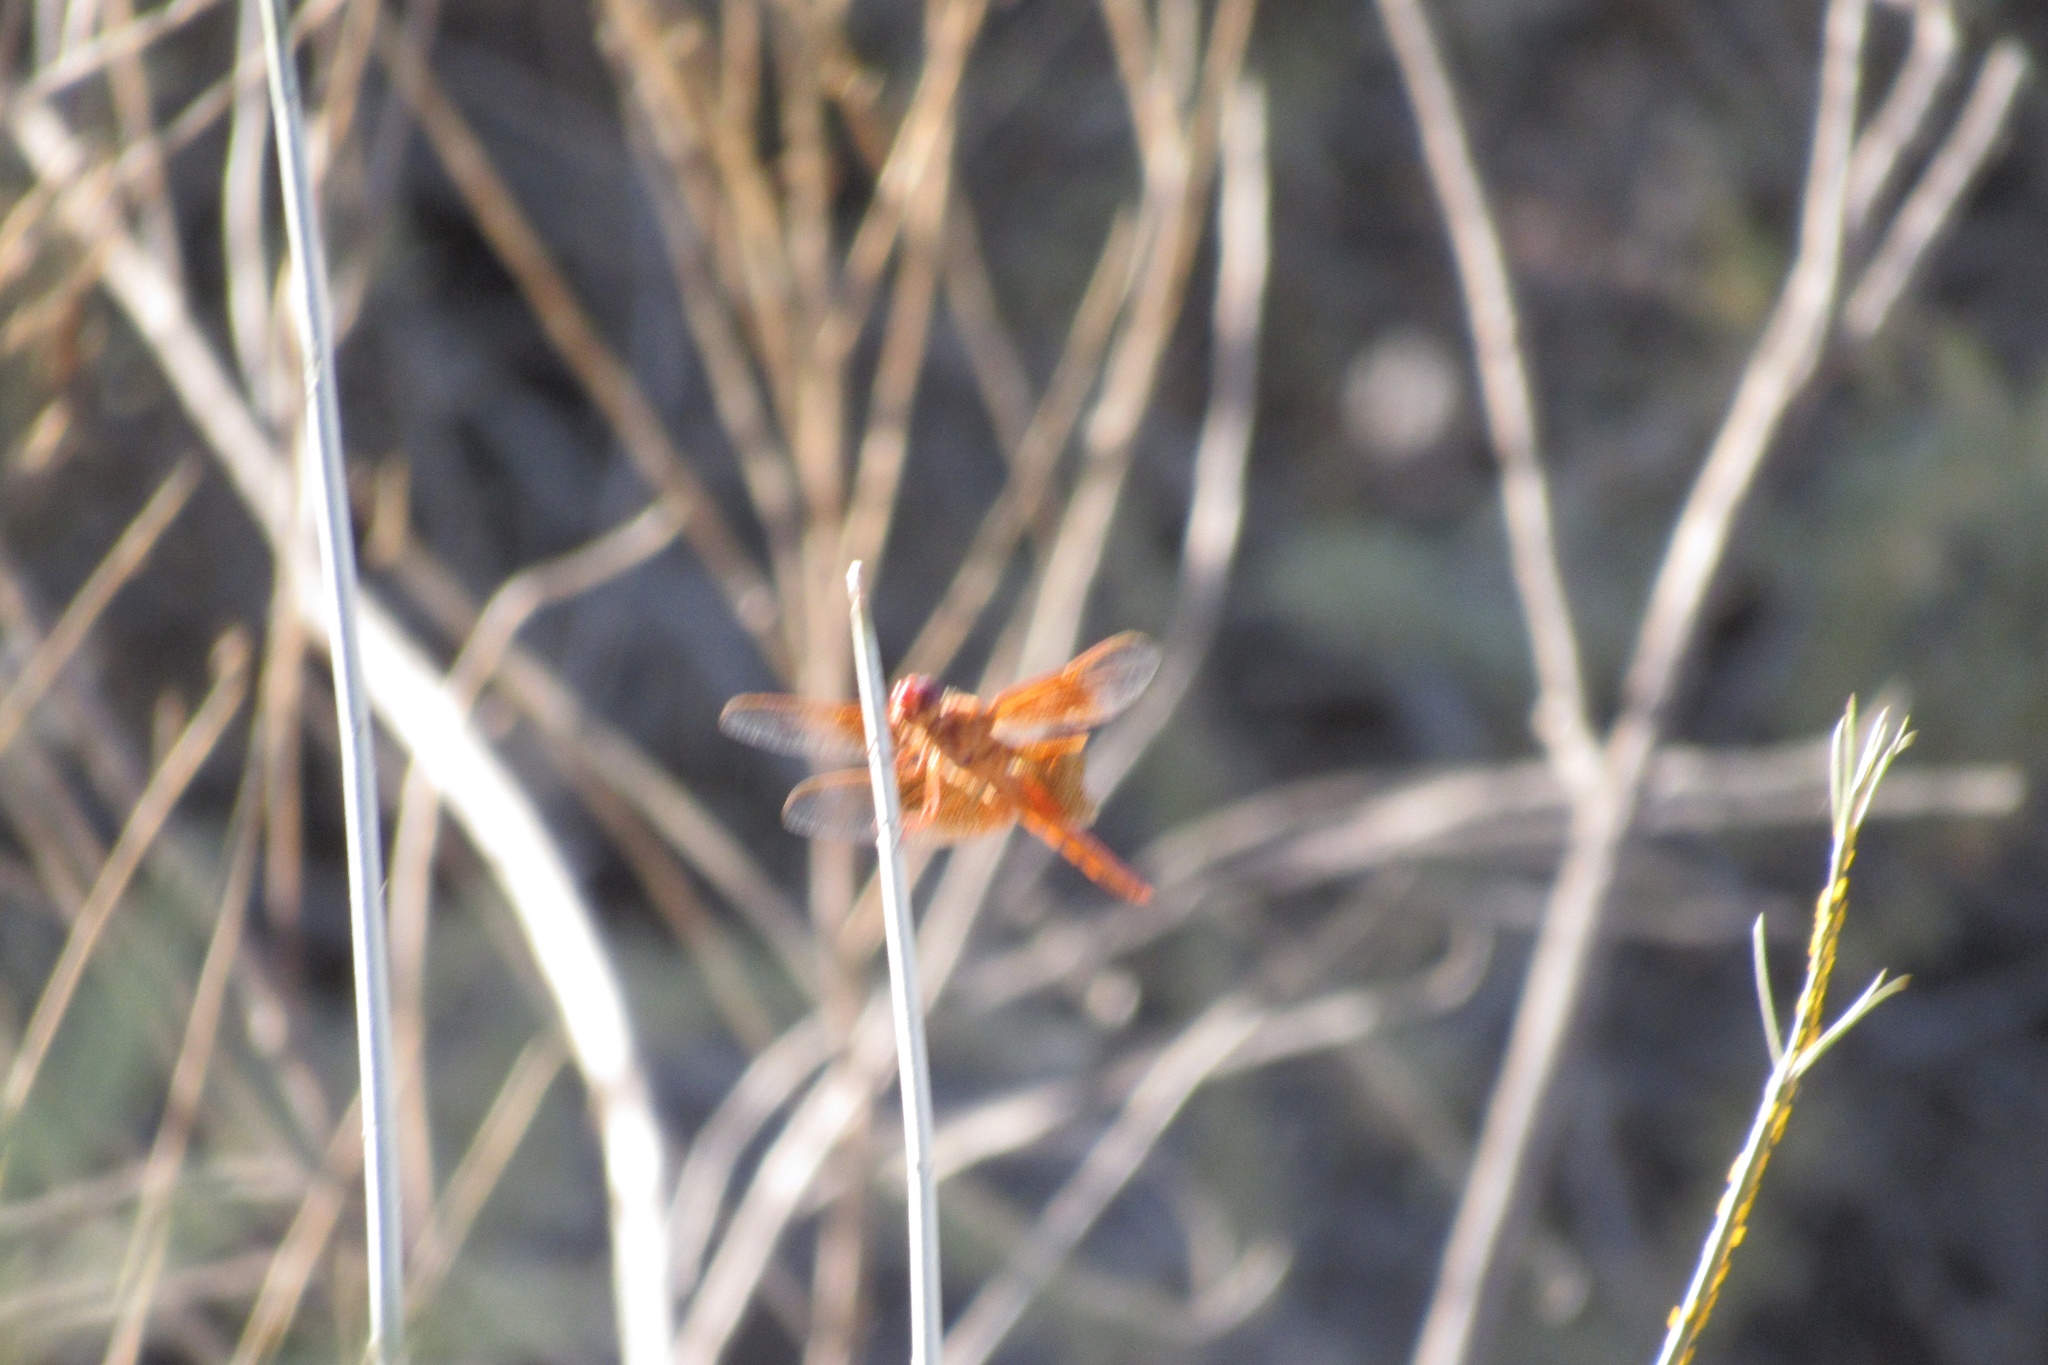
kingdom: Animalia
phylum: Arthropoda
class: Insecta
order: Odonata
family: Libellulidae
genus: Libellula
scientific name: Libellula saturata
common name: Flame skimmer
